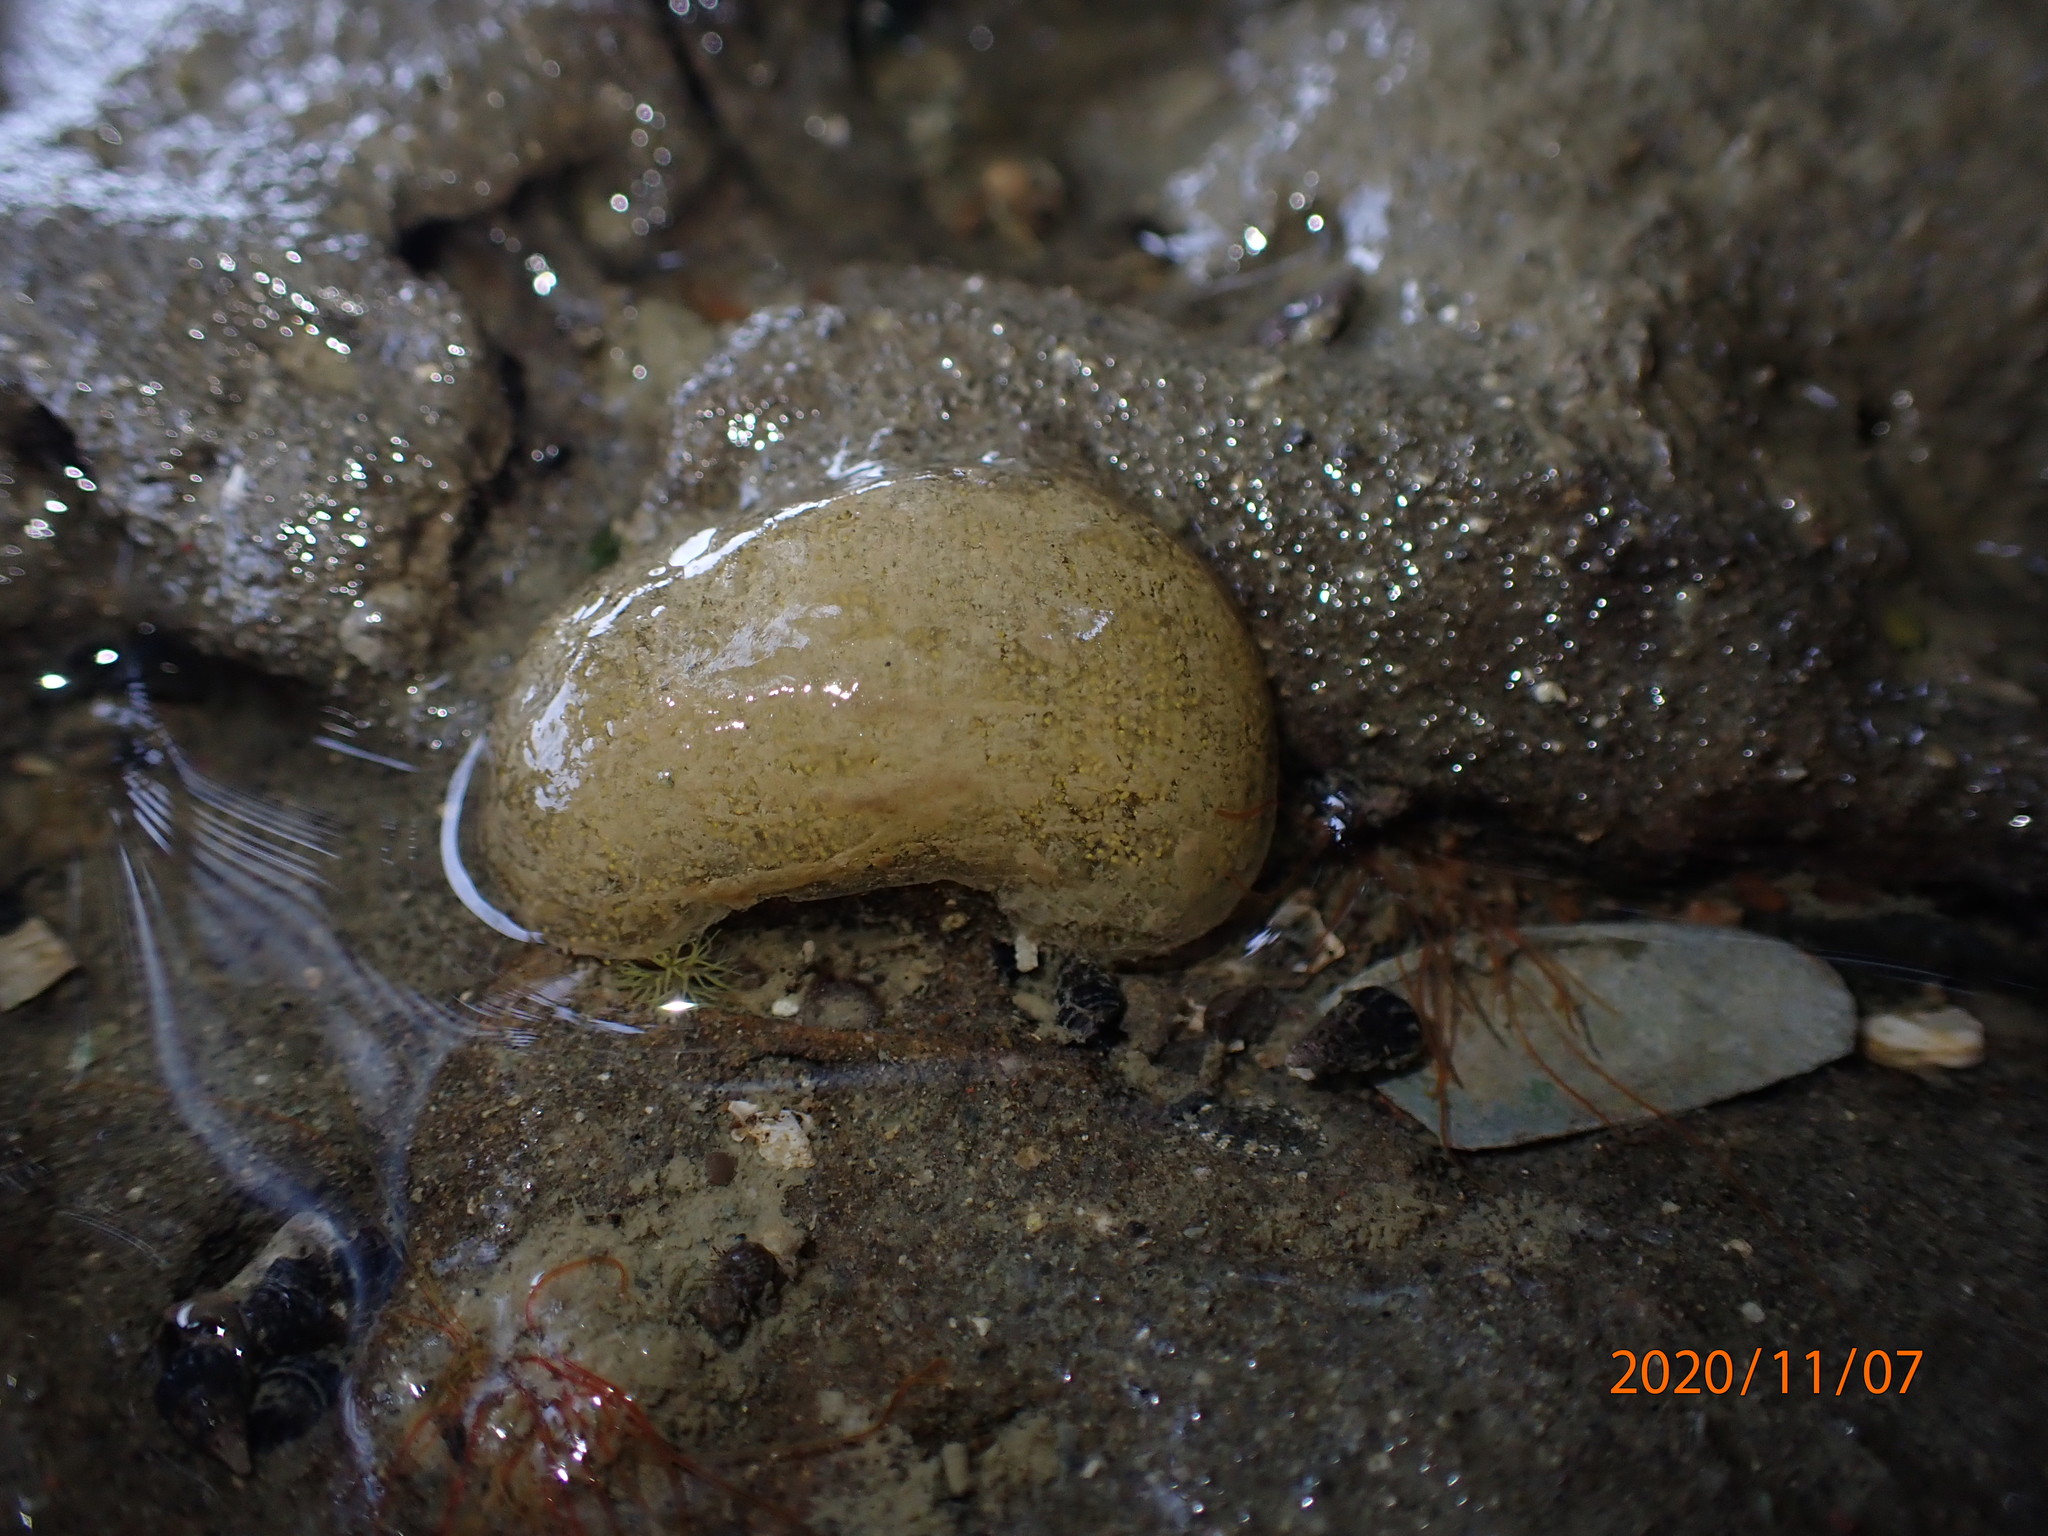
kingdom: Animalia
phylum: Mollusca
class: Gastropoda
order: Cephalaspidea
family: Haminoeidae
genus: Papawera
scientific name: Papawera zelandiae
